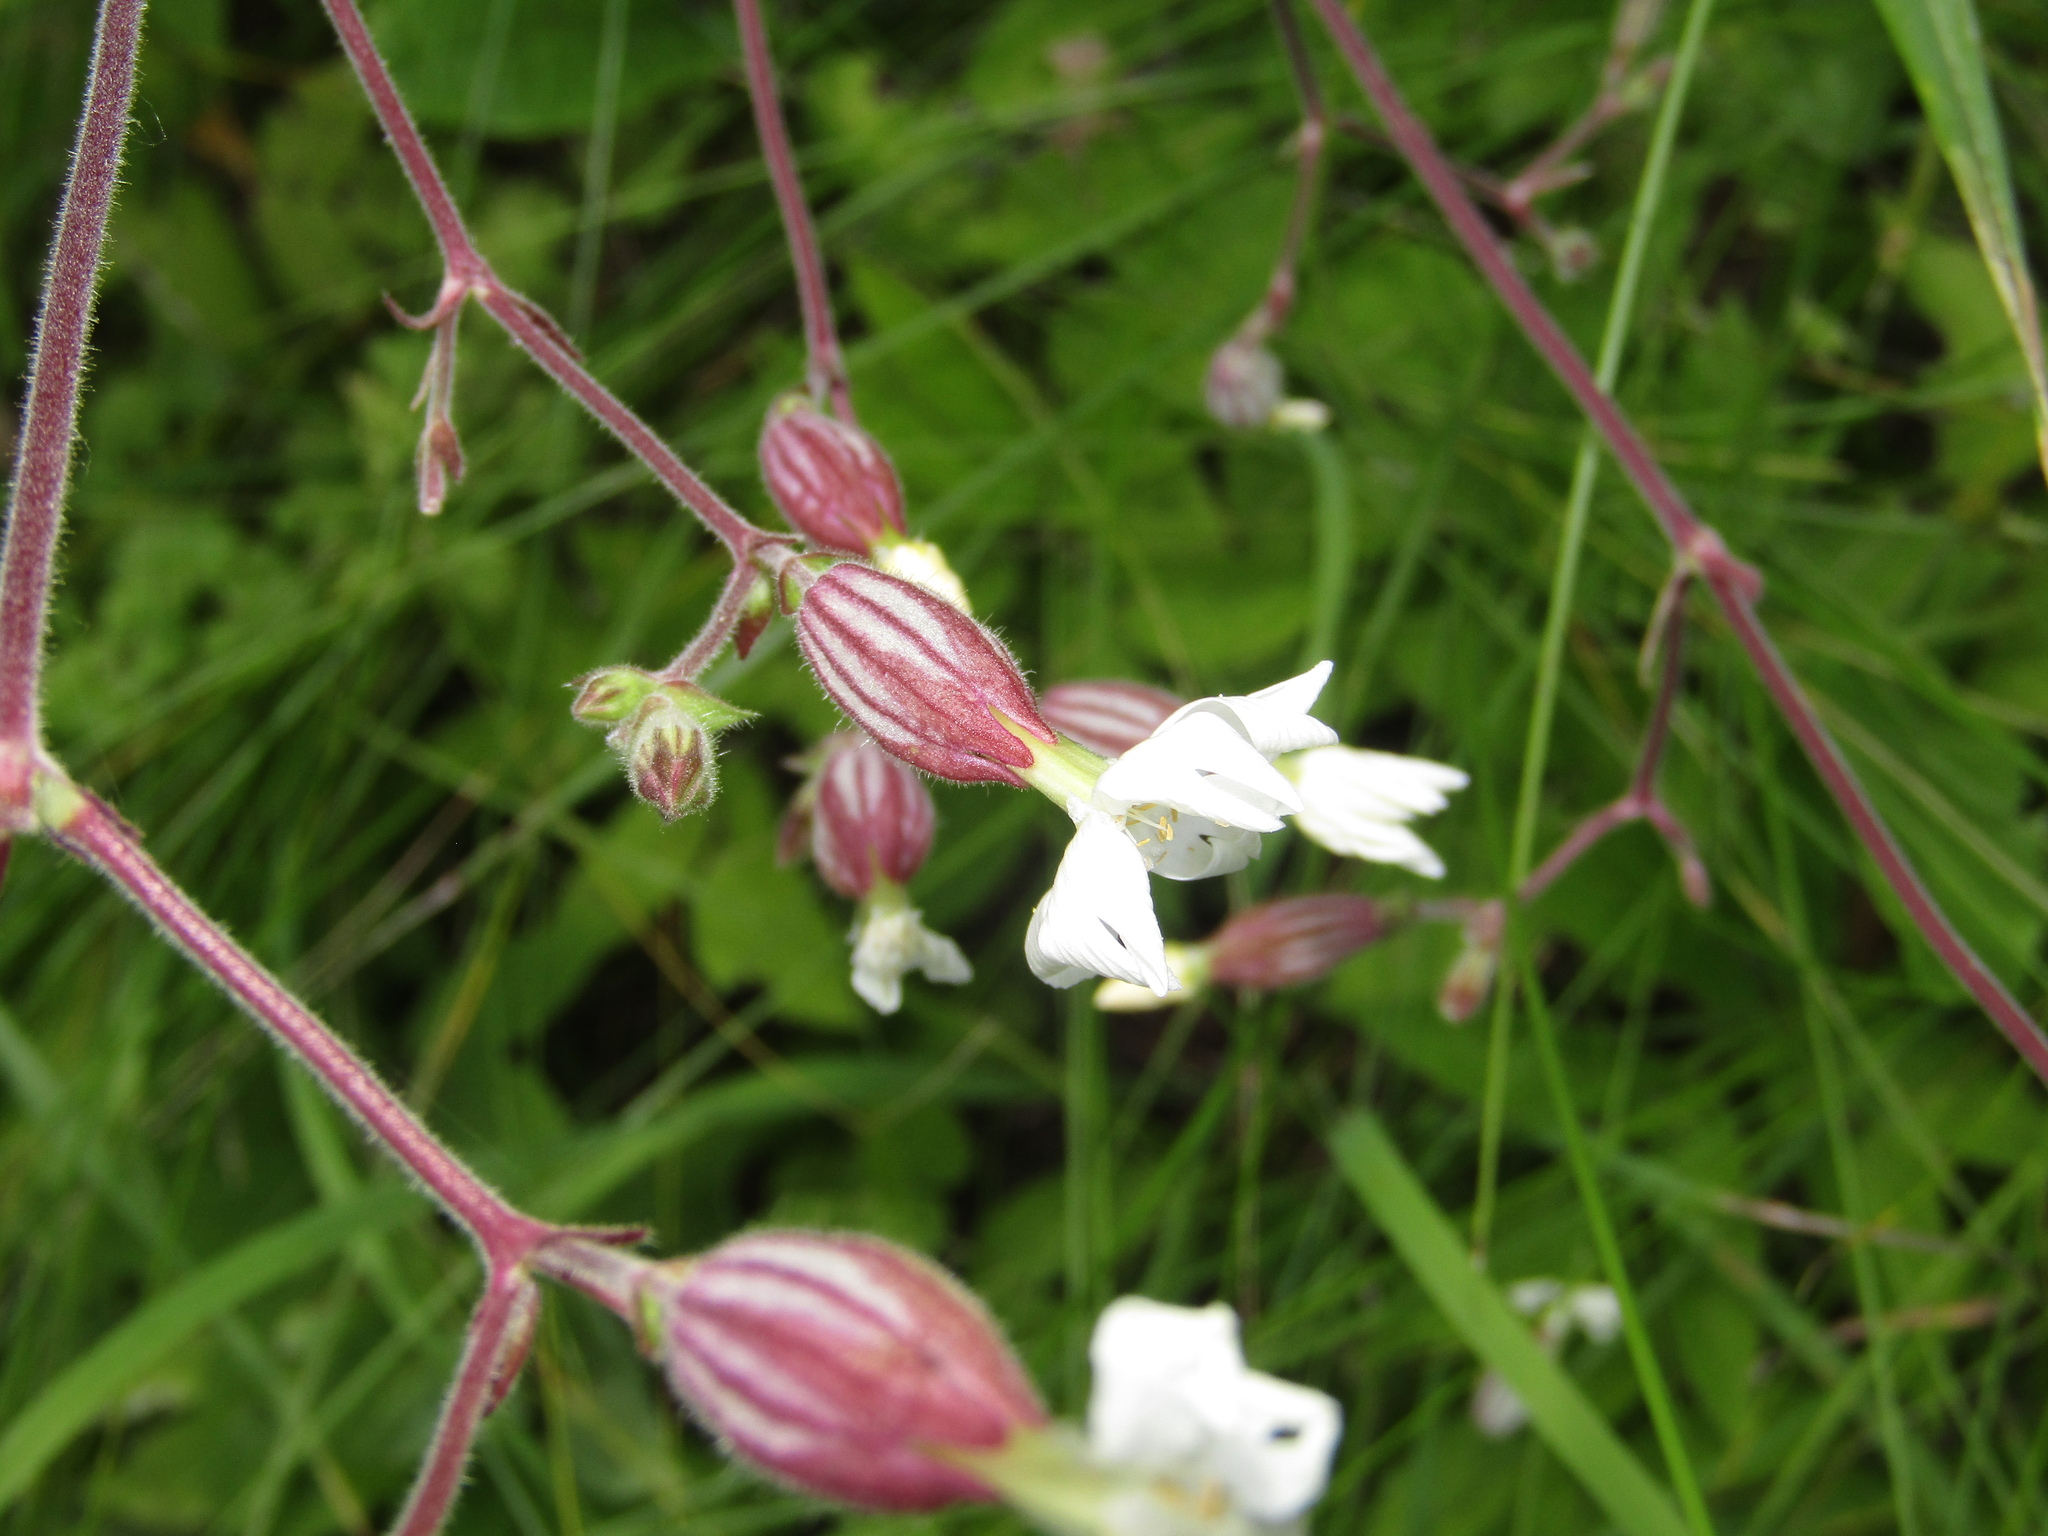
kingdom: Plantae
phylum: Tracheophyta
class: Magnoliopsida
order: Caryophyllales
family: Caryophyllaceae
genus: Silene
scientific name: Silene latifolia
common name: White campion
